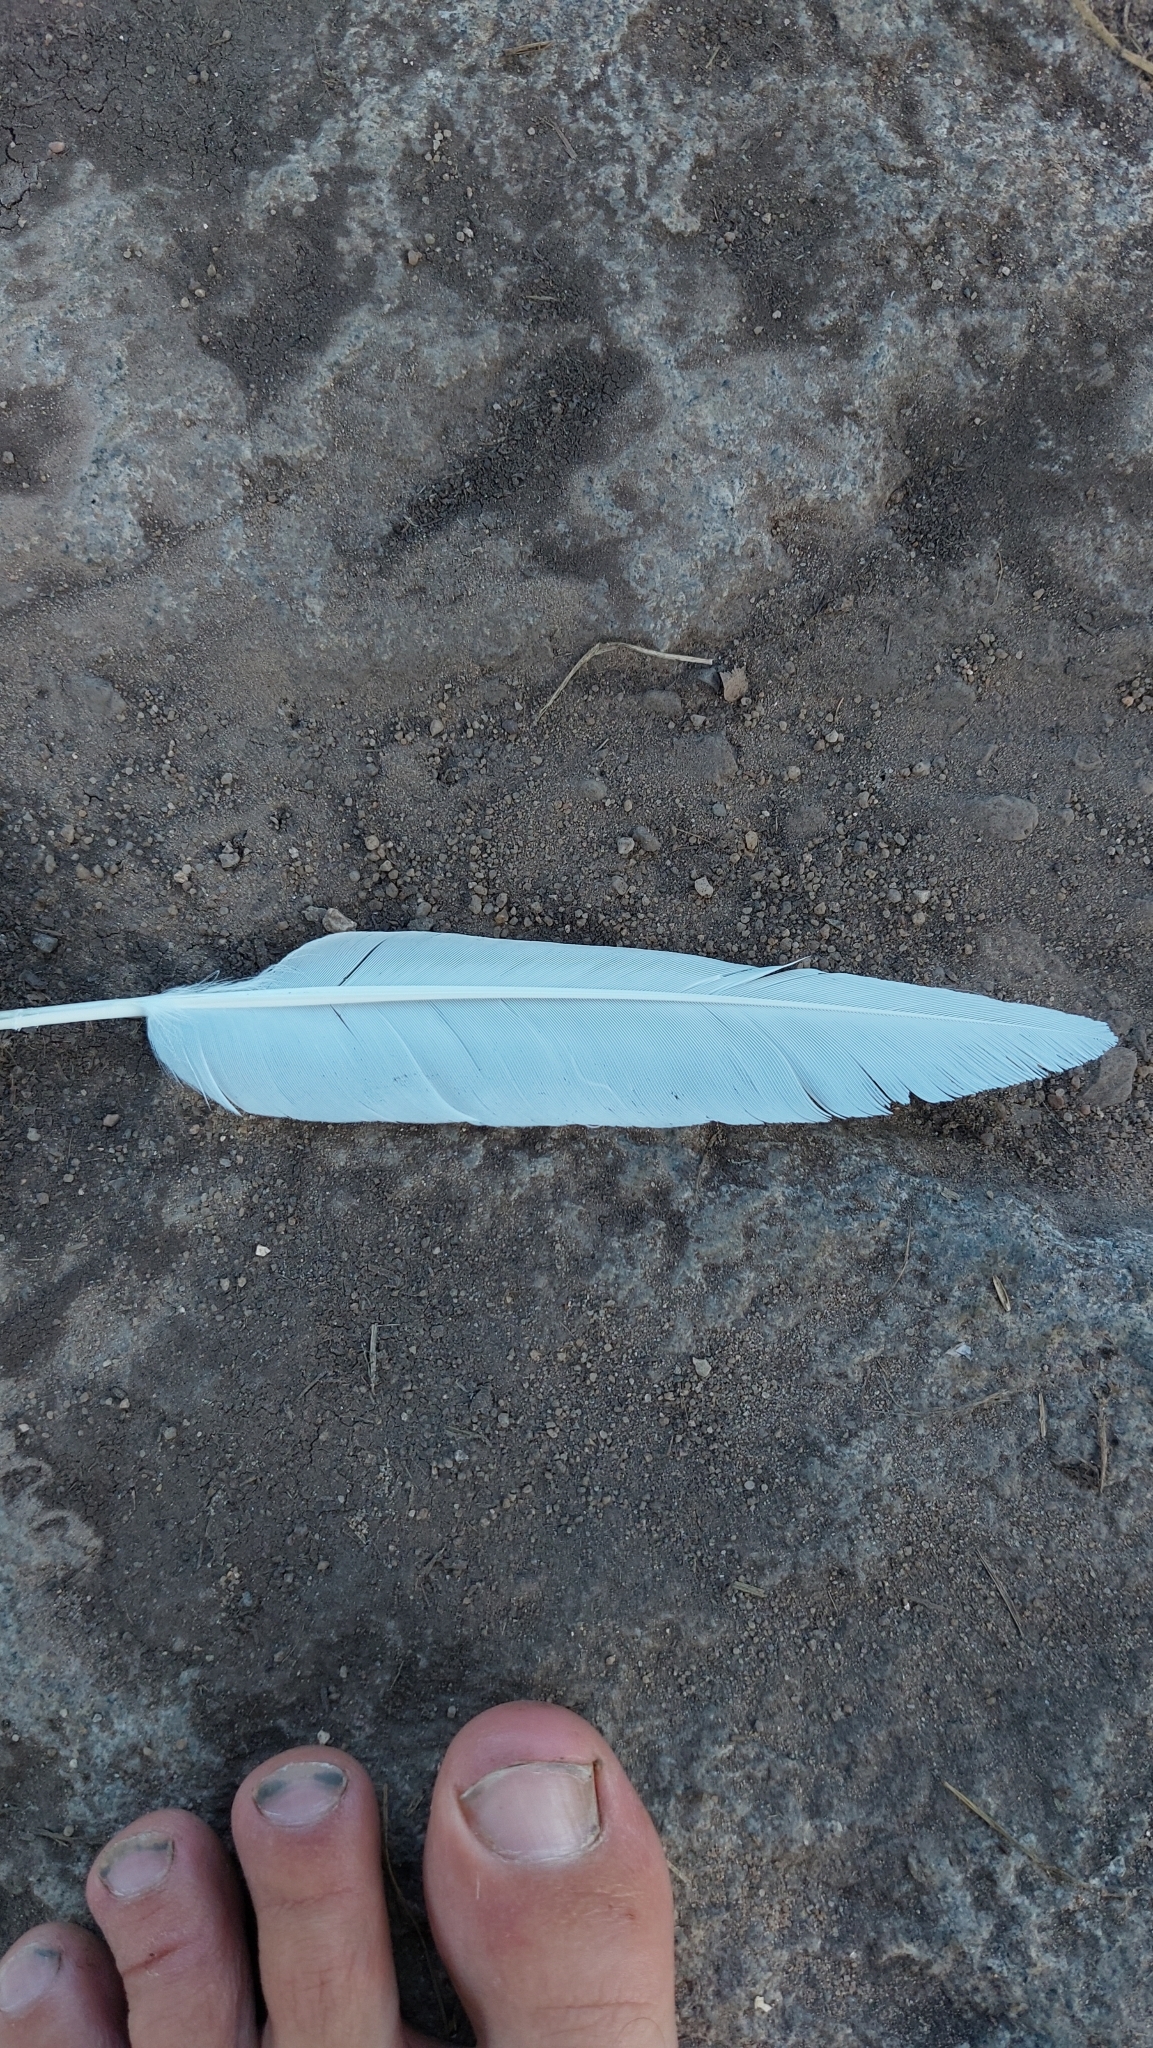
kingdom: Animalia
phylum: Chordata
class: Aves
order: Columbiformes
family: Columbidae
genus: Columba
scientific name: Columba livia
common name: Rock pigeon
